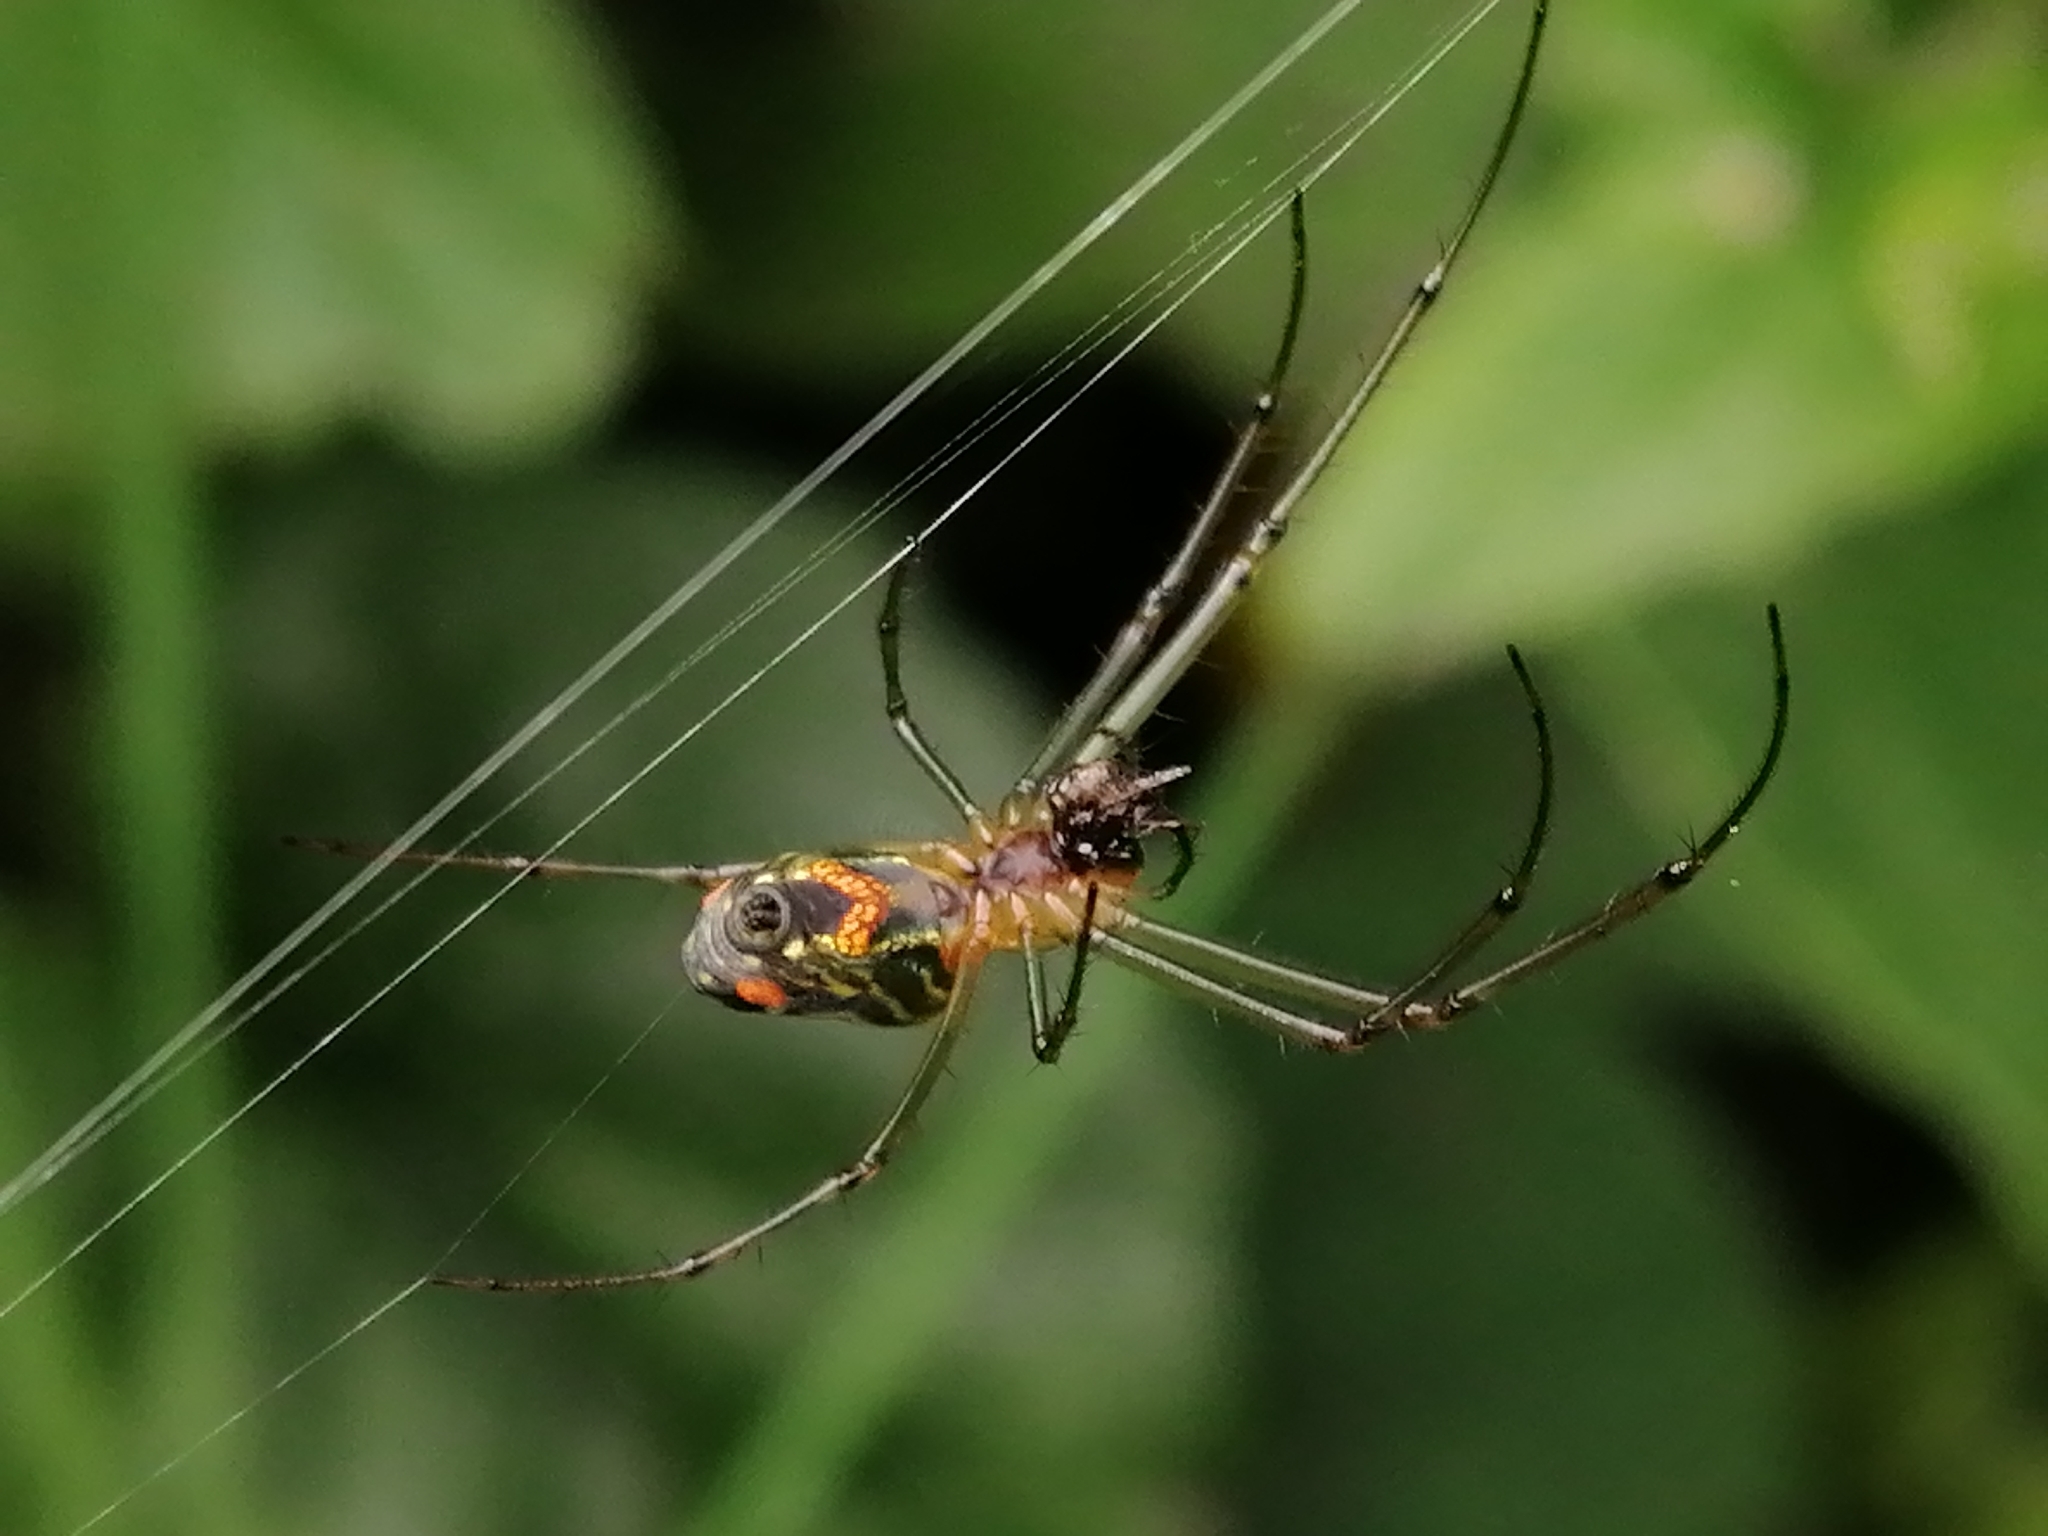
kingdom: Animalia
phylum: Arthropoda
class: Arachnida
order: Araneae
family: Tetragnathidae
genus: Leucauge
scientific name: Leucauge mariana
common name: Longjawed orb weavers
